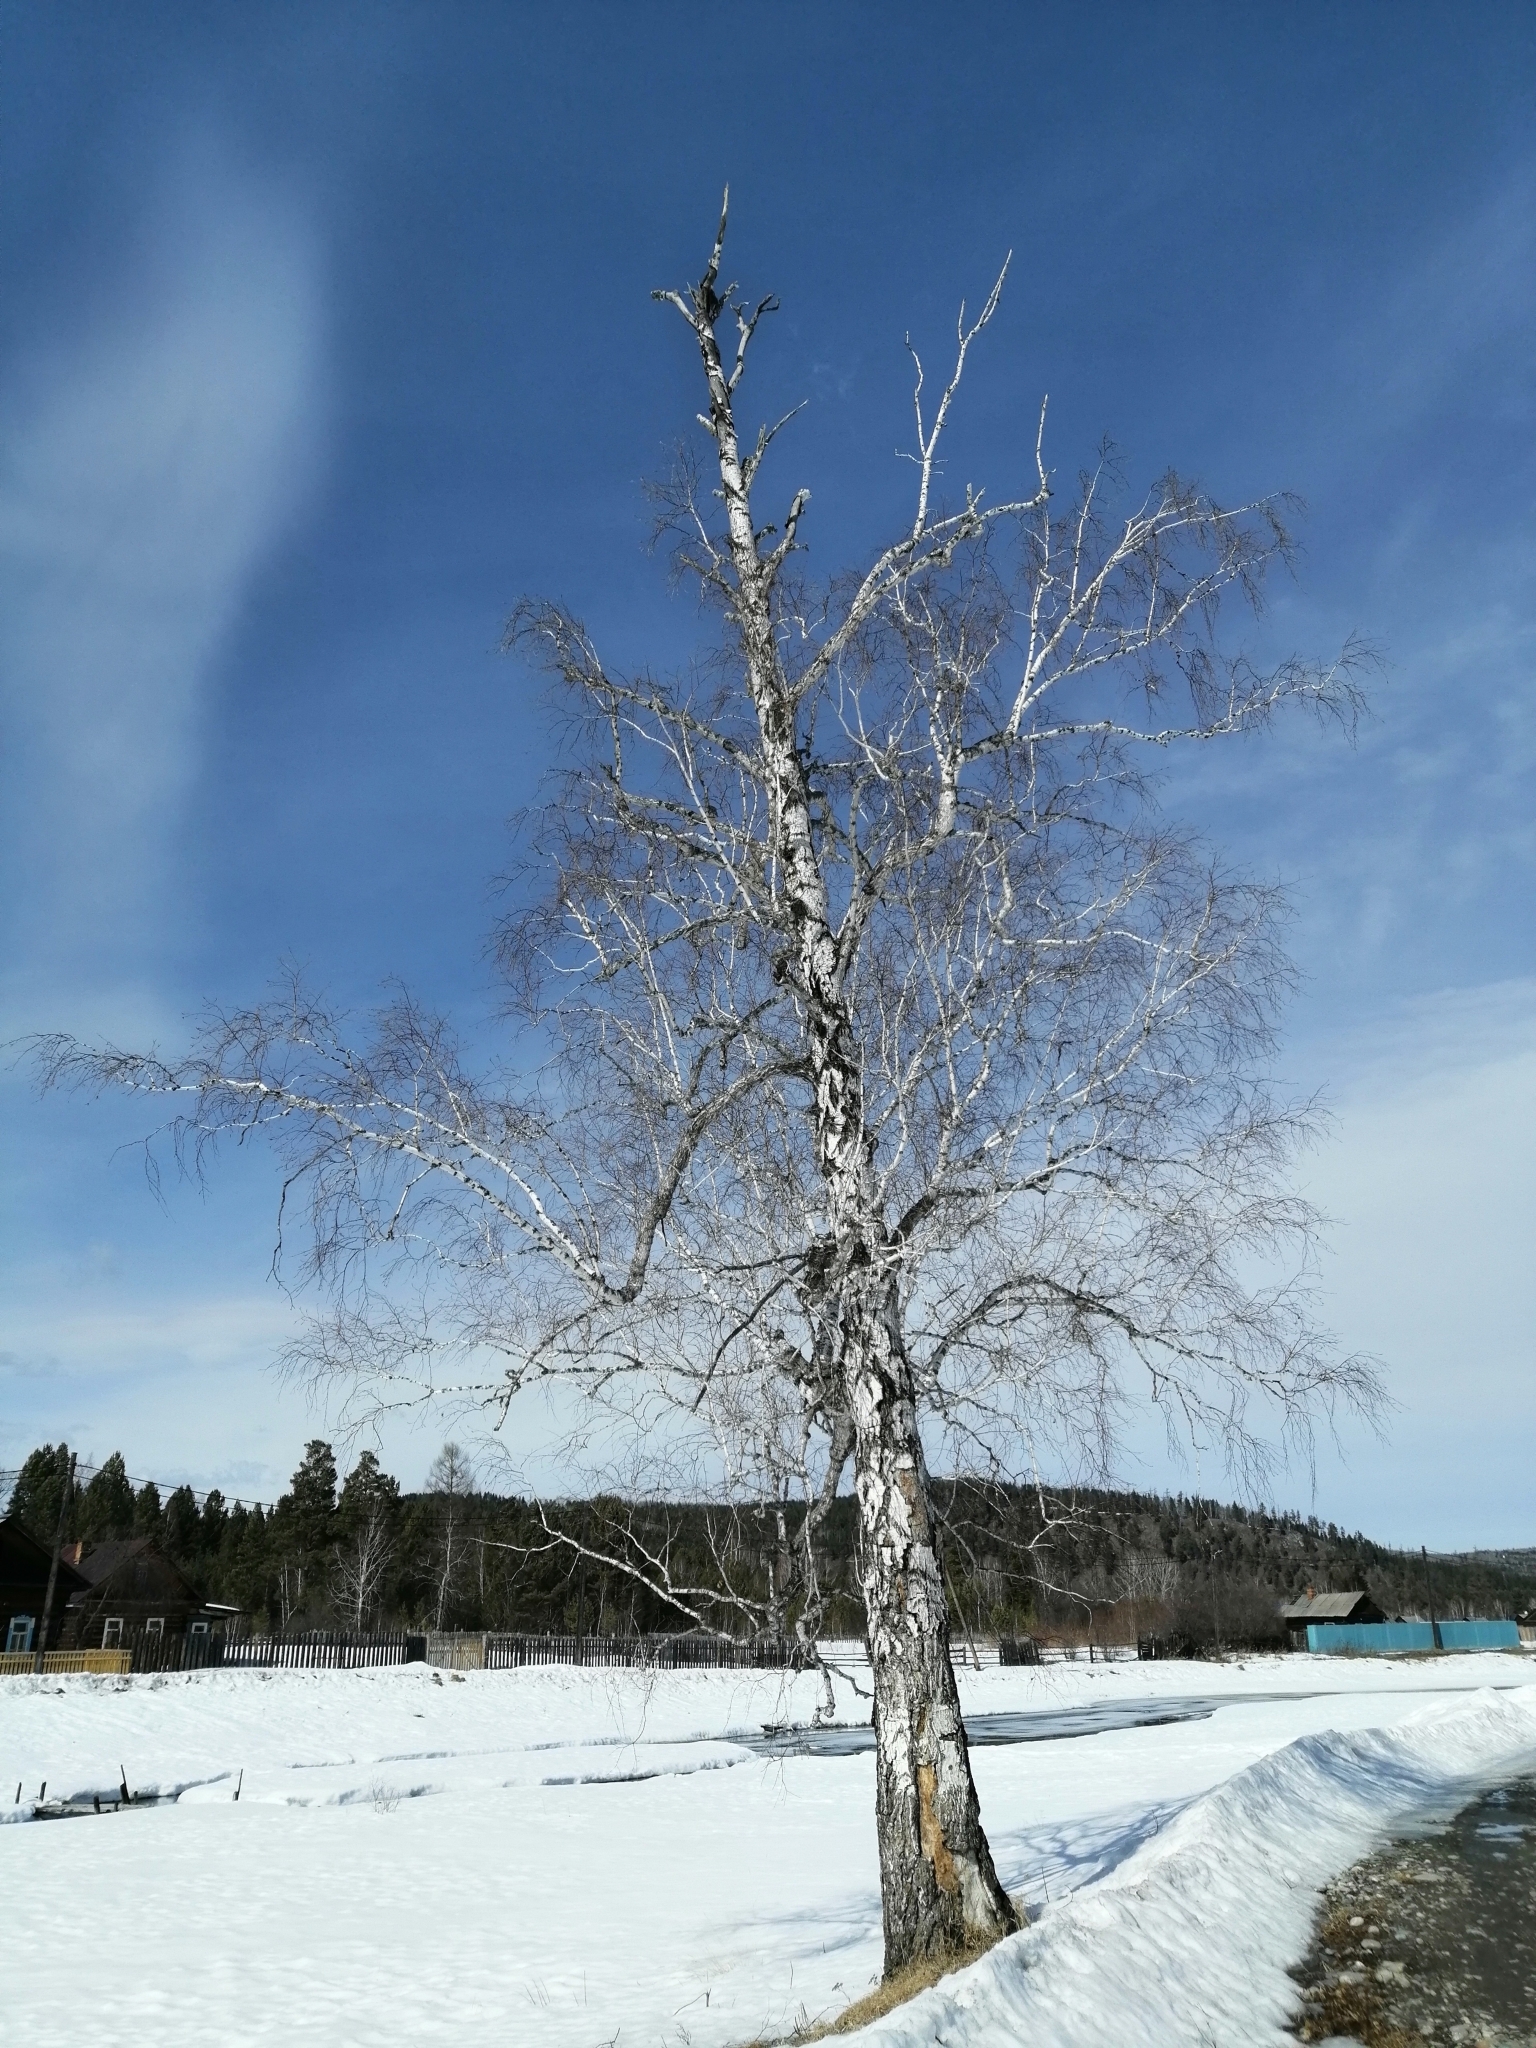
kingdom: Plantae
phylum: Tracheophyta
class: Magnoliopsida
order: Fagales
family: Betulaceae
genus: Betula
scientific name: Betula pendula
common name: Silver birch
